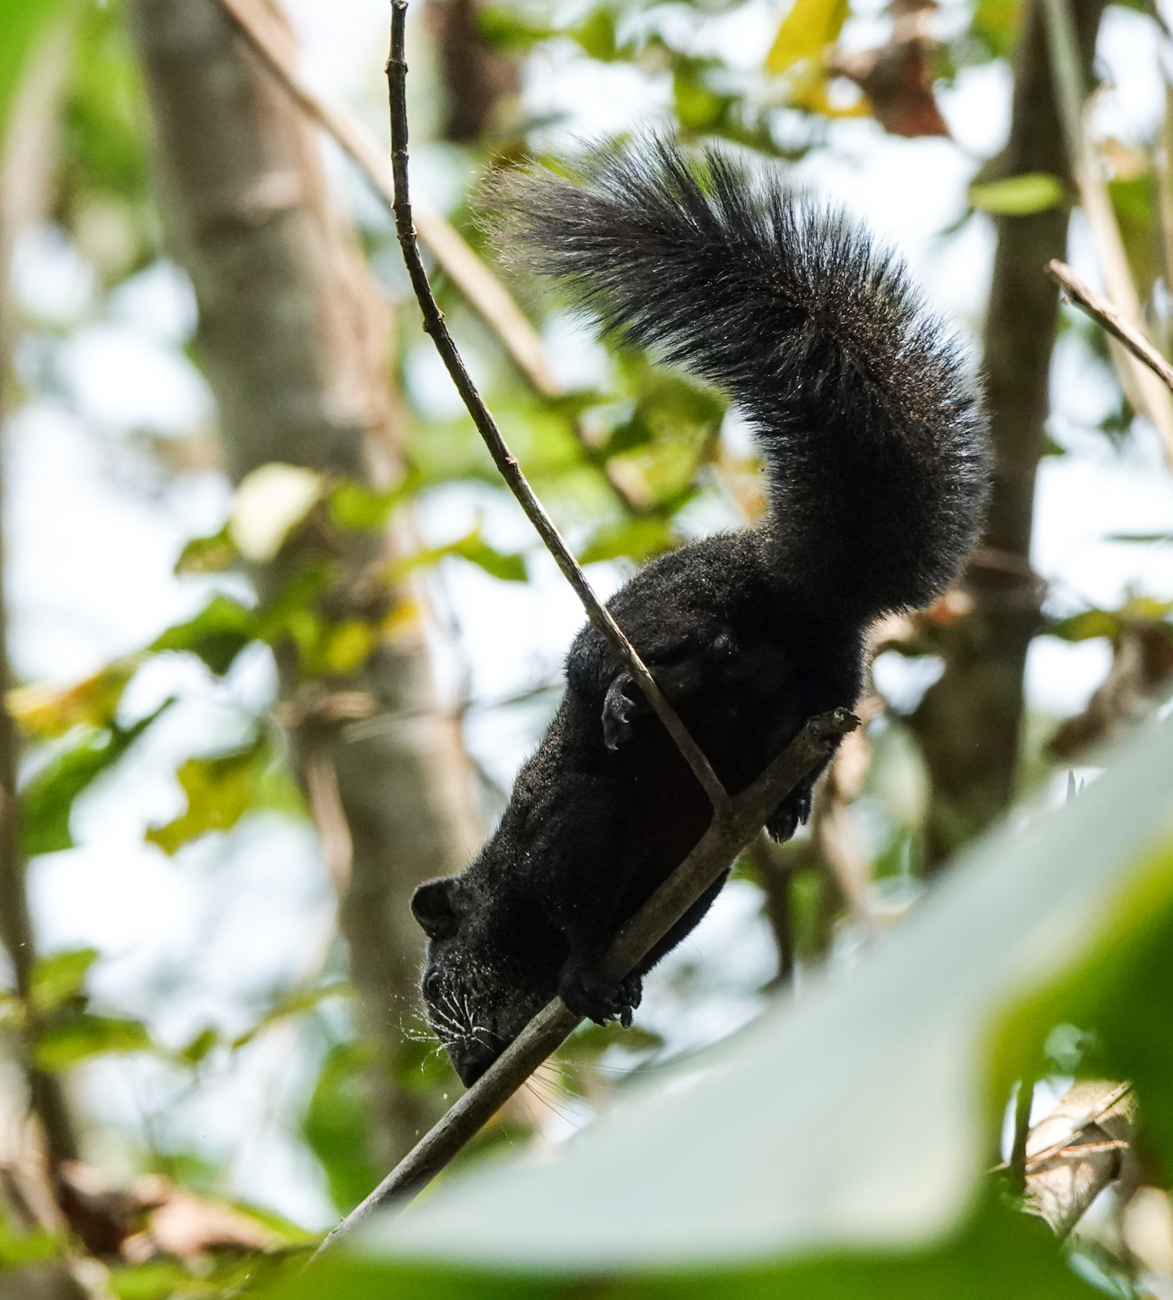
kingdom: Animalia
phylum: Chordata
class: Mammalia
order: Rodentia
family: Sciuridae
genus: Callosciurus
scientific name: Callosciurus erythraeus
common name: Pallas's squirrel
